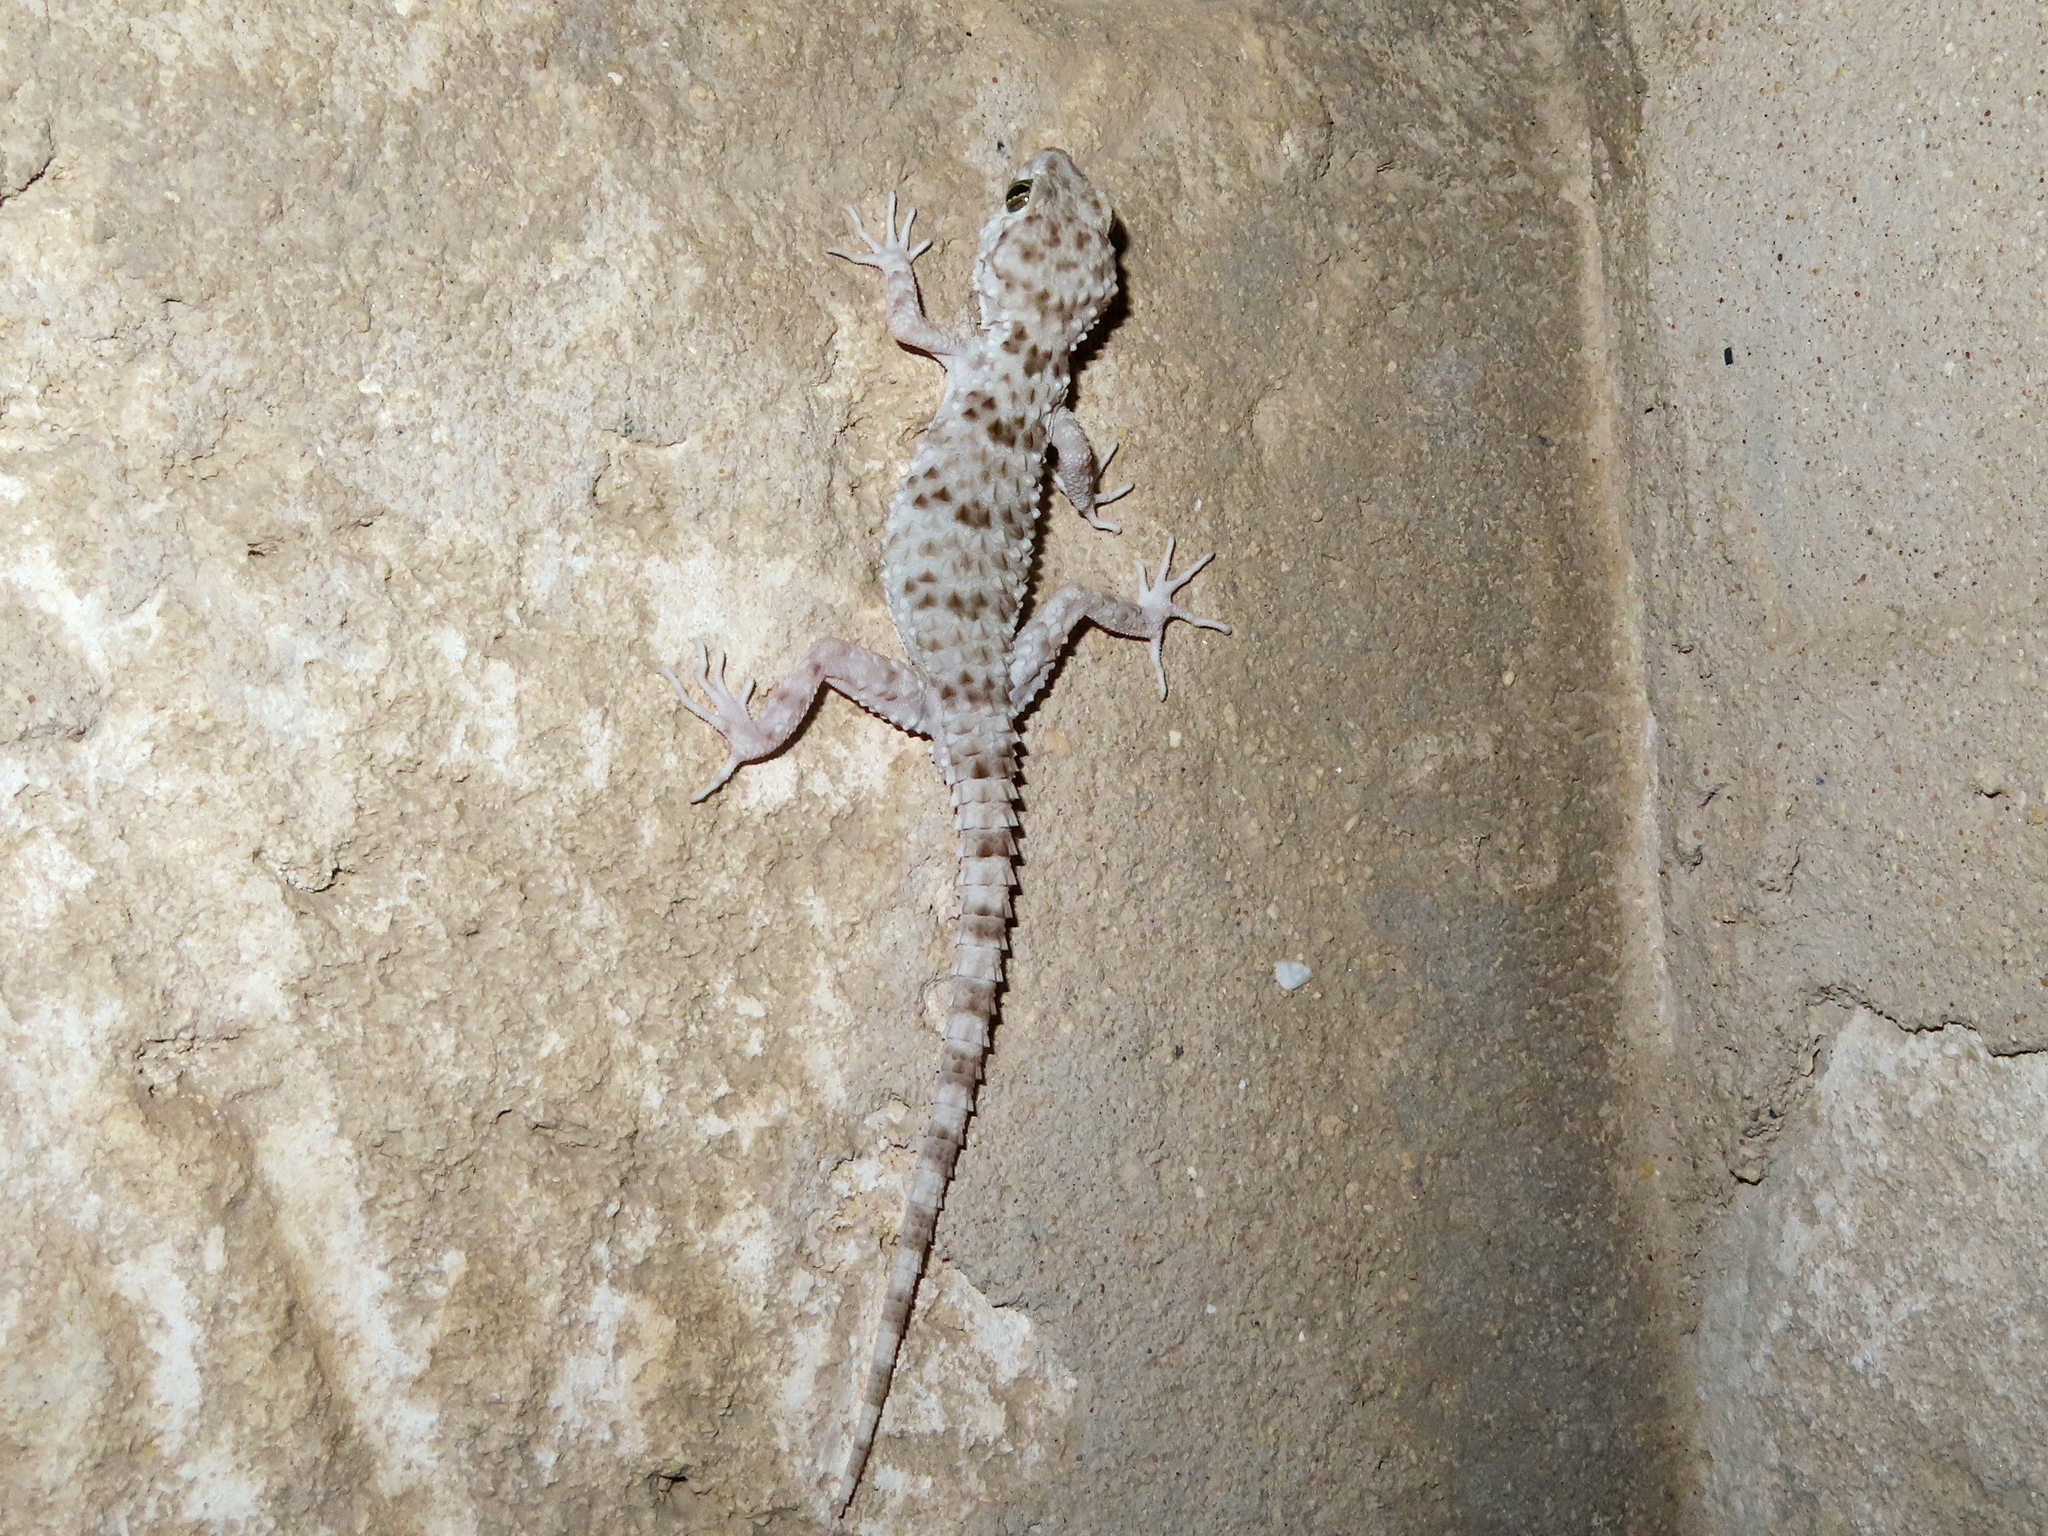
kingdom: Animalia
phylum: Chordata
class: Squamata
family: Gekkonidae
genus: Tenuidactylus
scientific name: Tenuidactylus caspius
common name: Caspian bent-toed gecko
